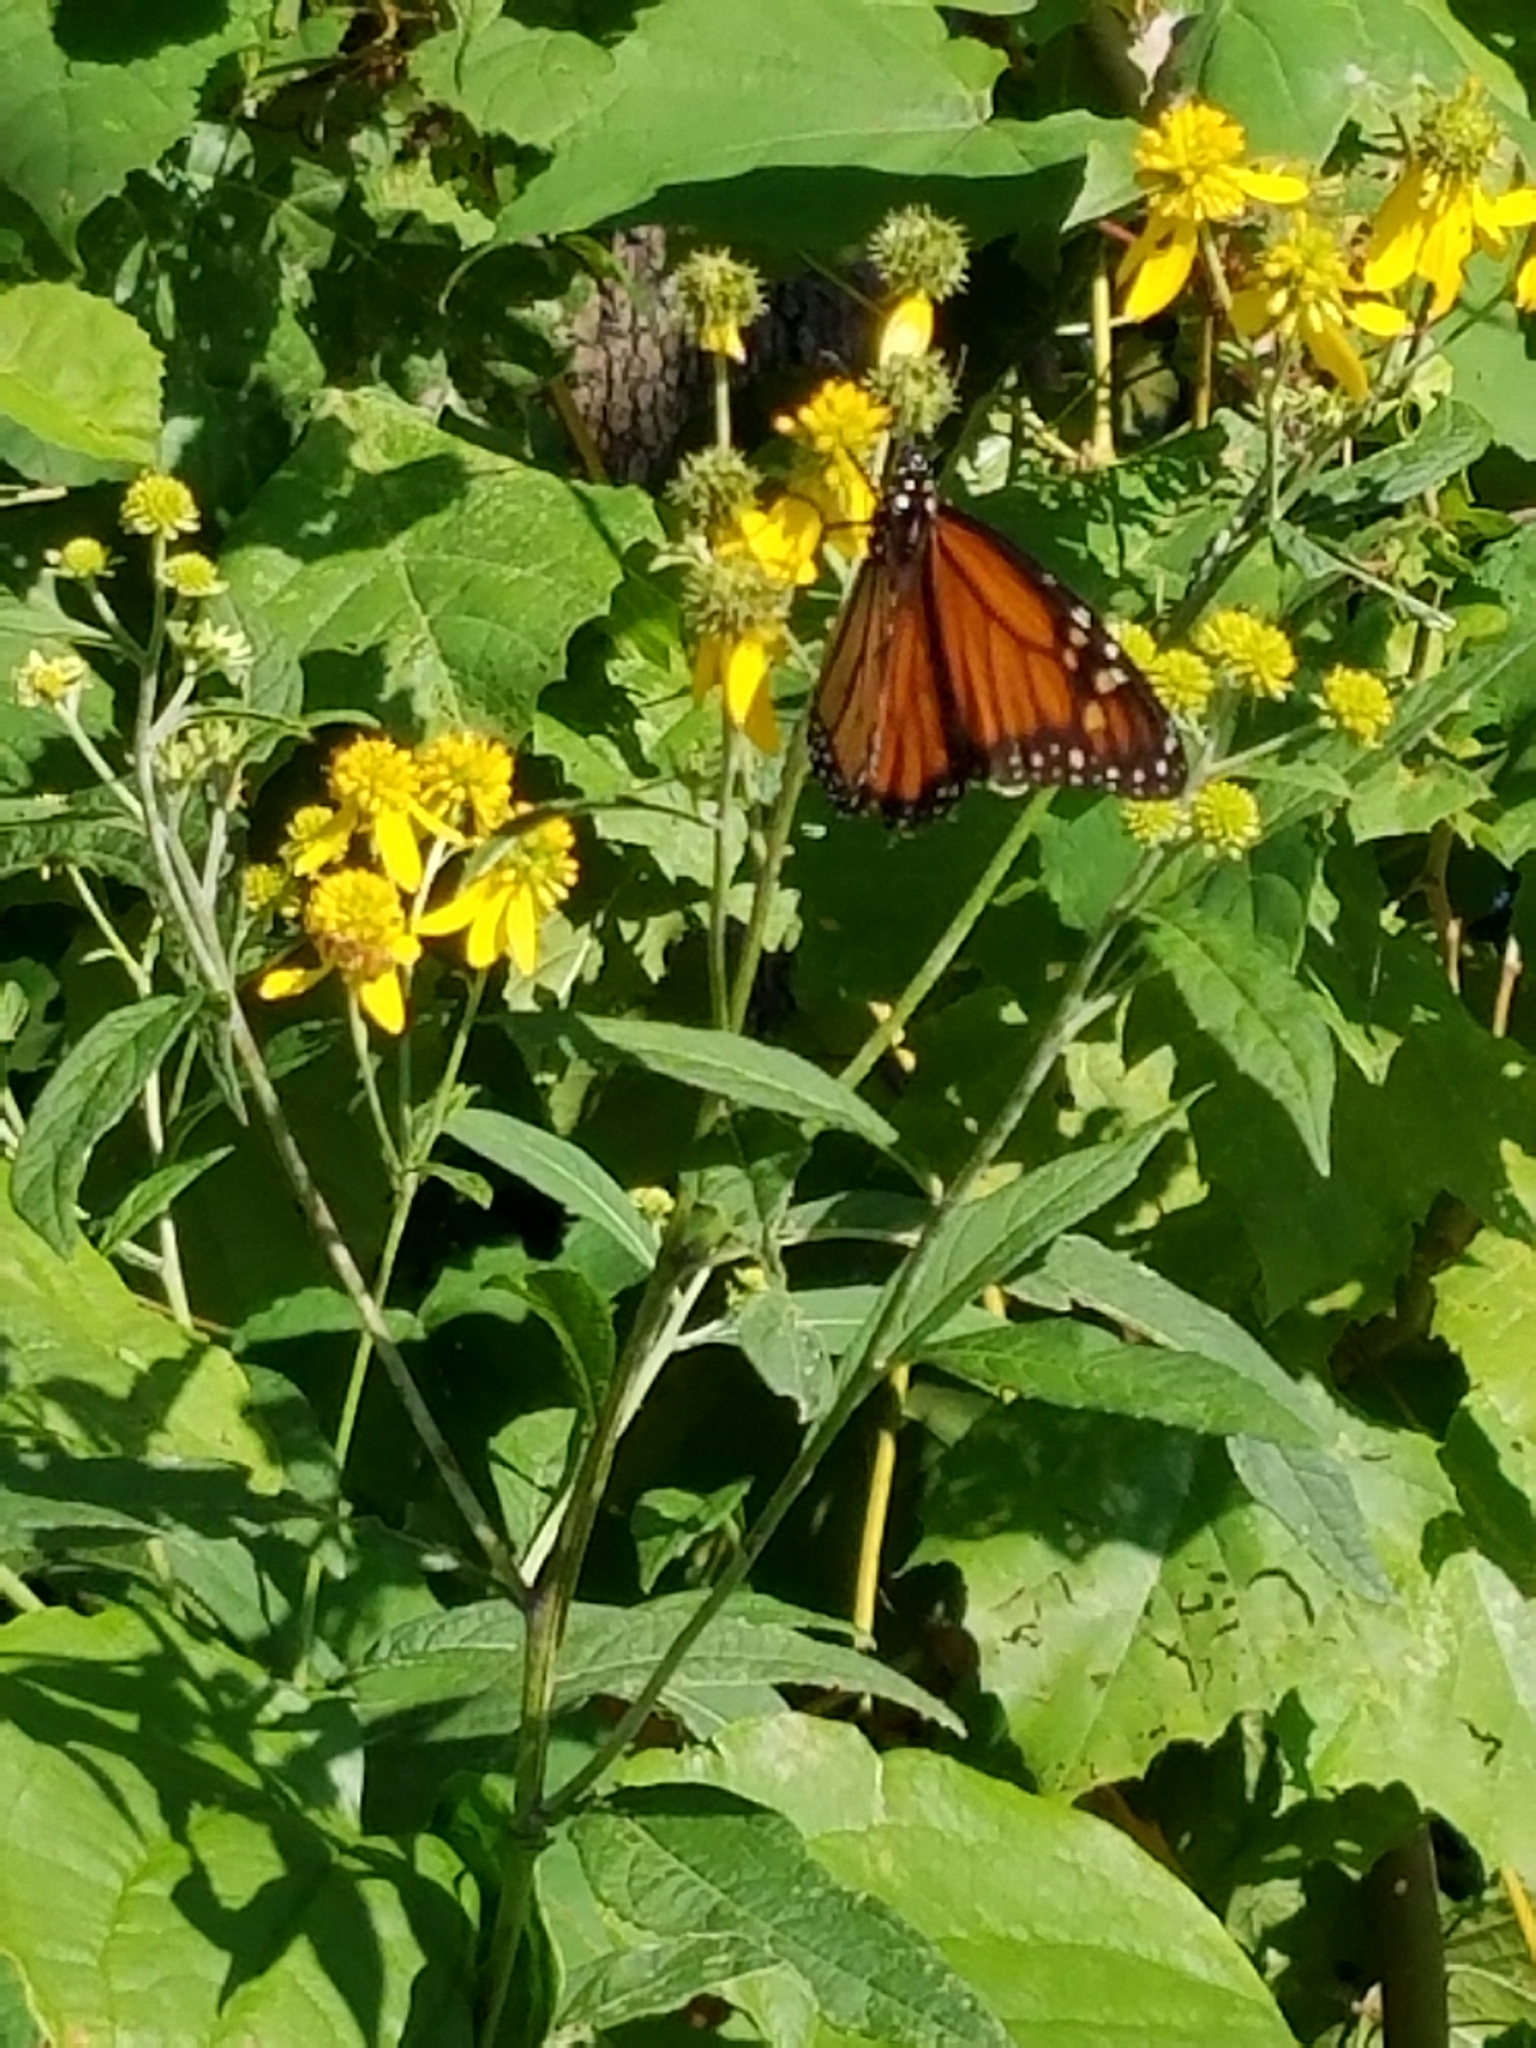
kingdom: Animalia
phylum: Arthropoda
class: Insecta
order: Lepidoptera
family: Nymphalidae
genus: Danaus
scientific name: Danaus plexippus
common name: Monarch
